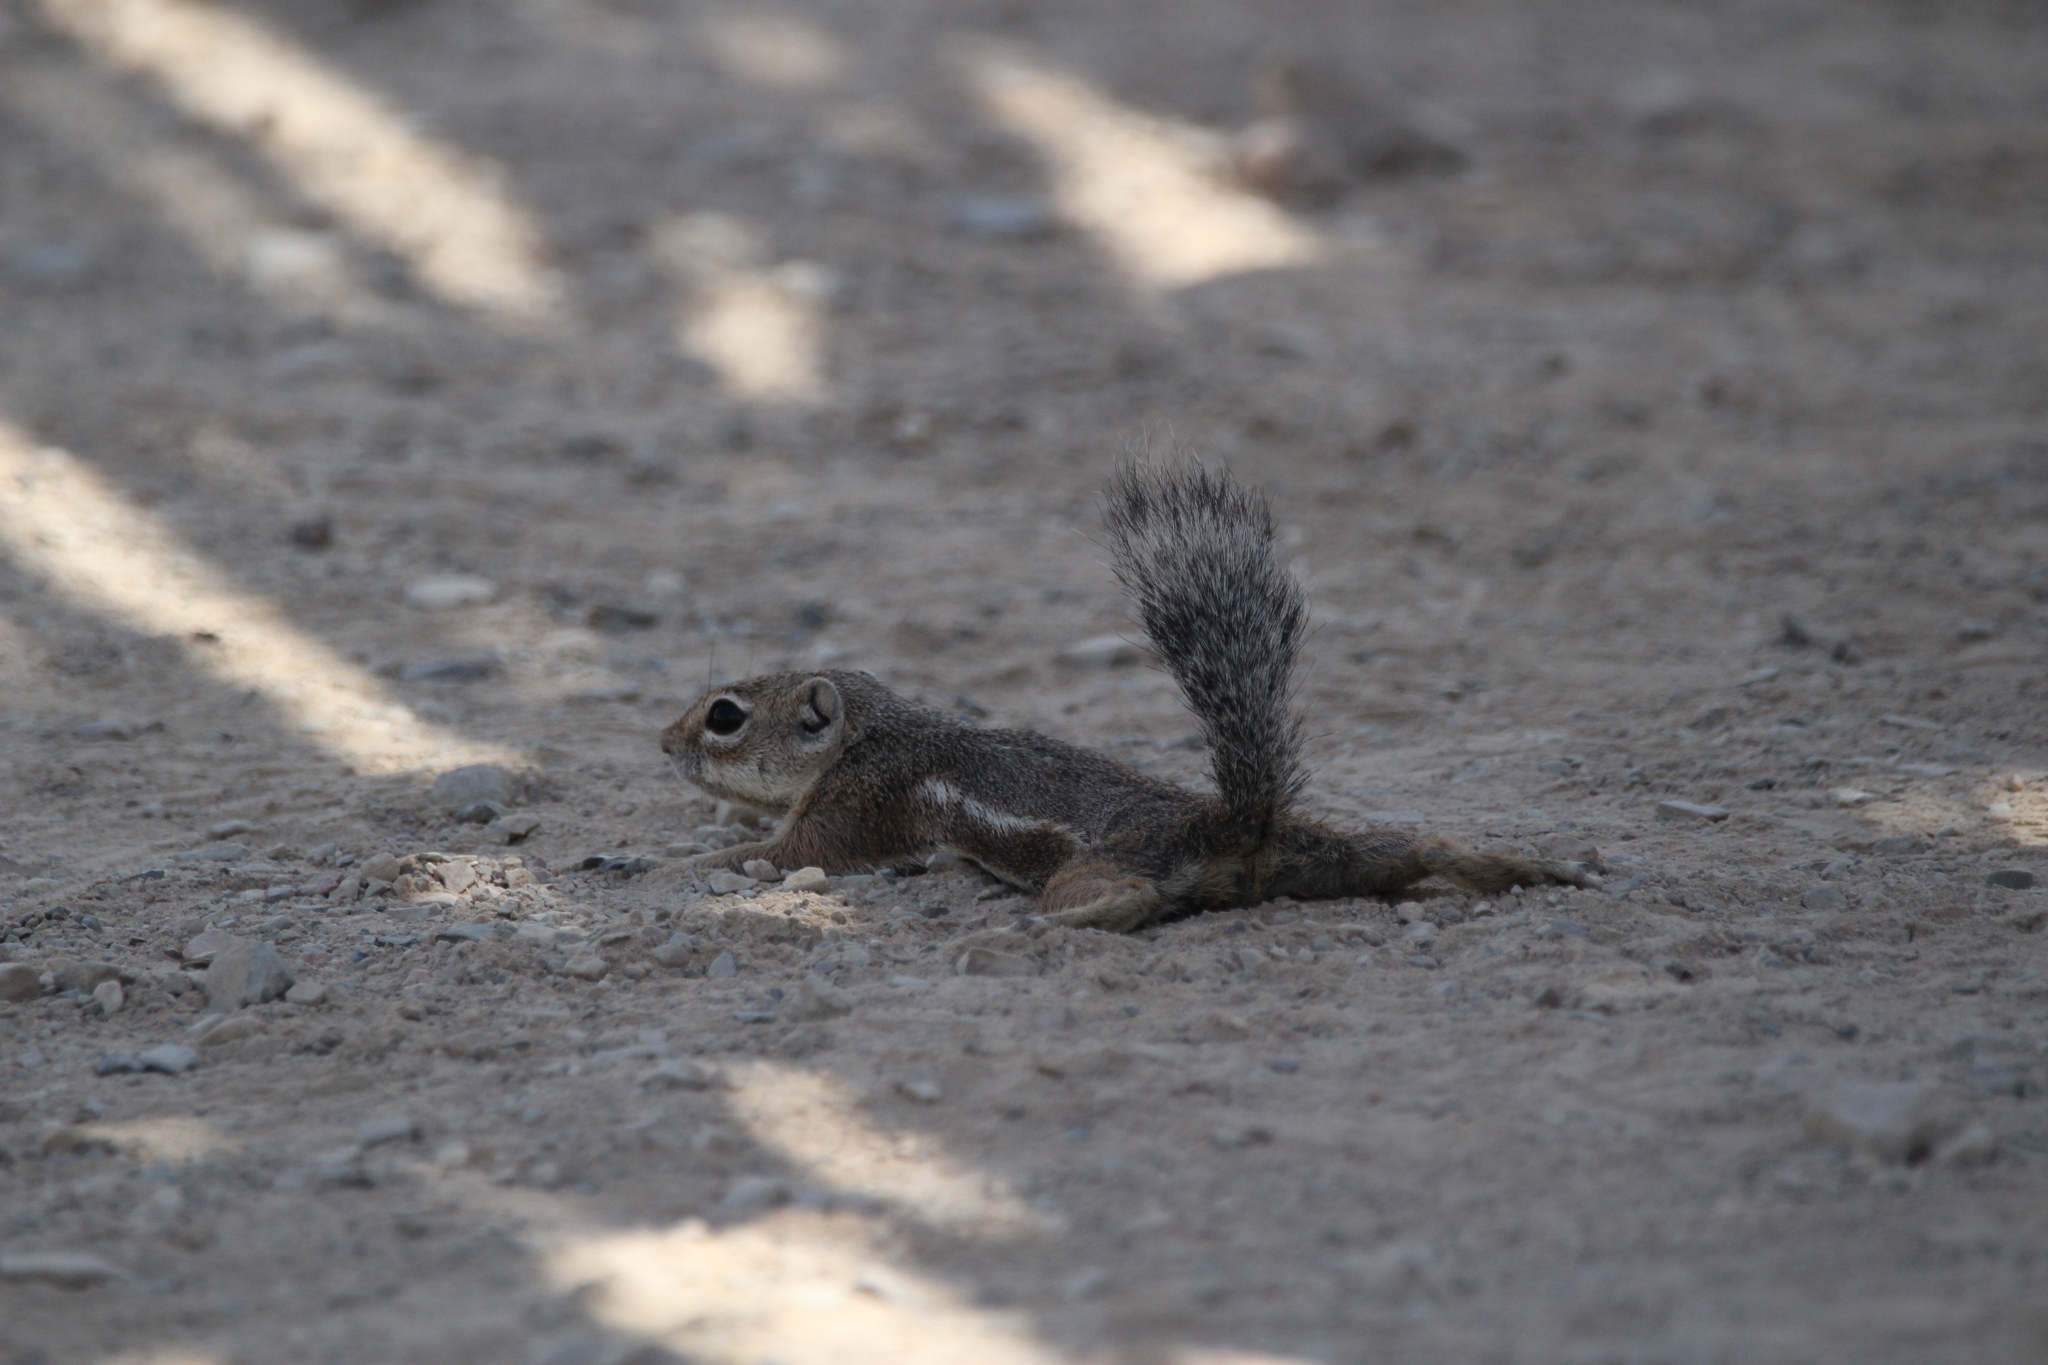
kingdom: Animalia
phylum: Chordata
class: Mammalia
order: Rodentia
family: Sciuridae
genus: Ammospermophilus
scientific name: Ammospermophilus harrisii
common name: Harris's antelope squirrel
